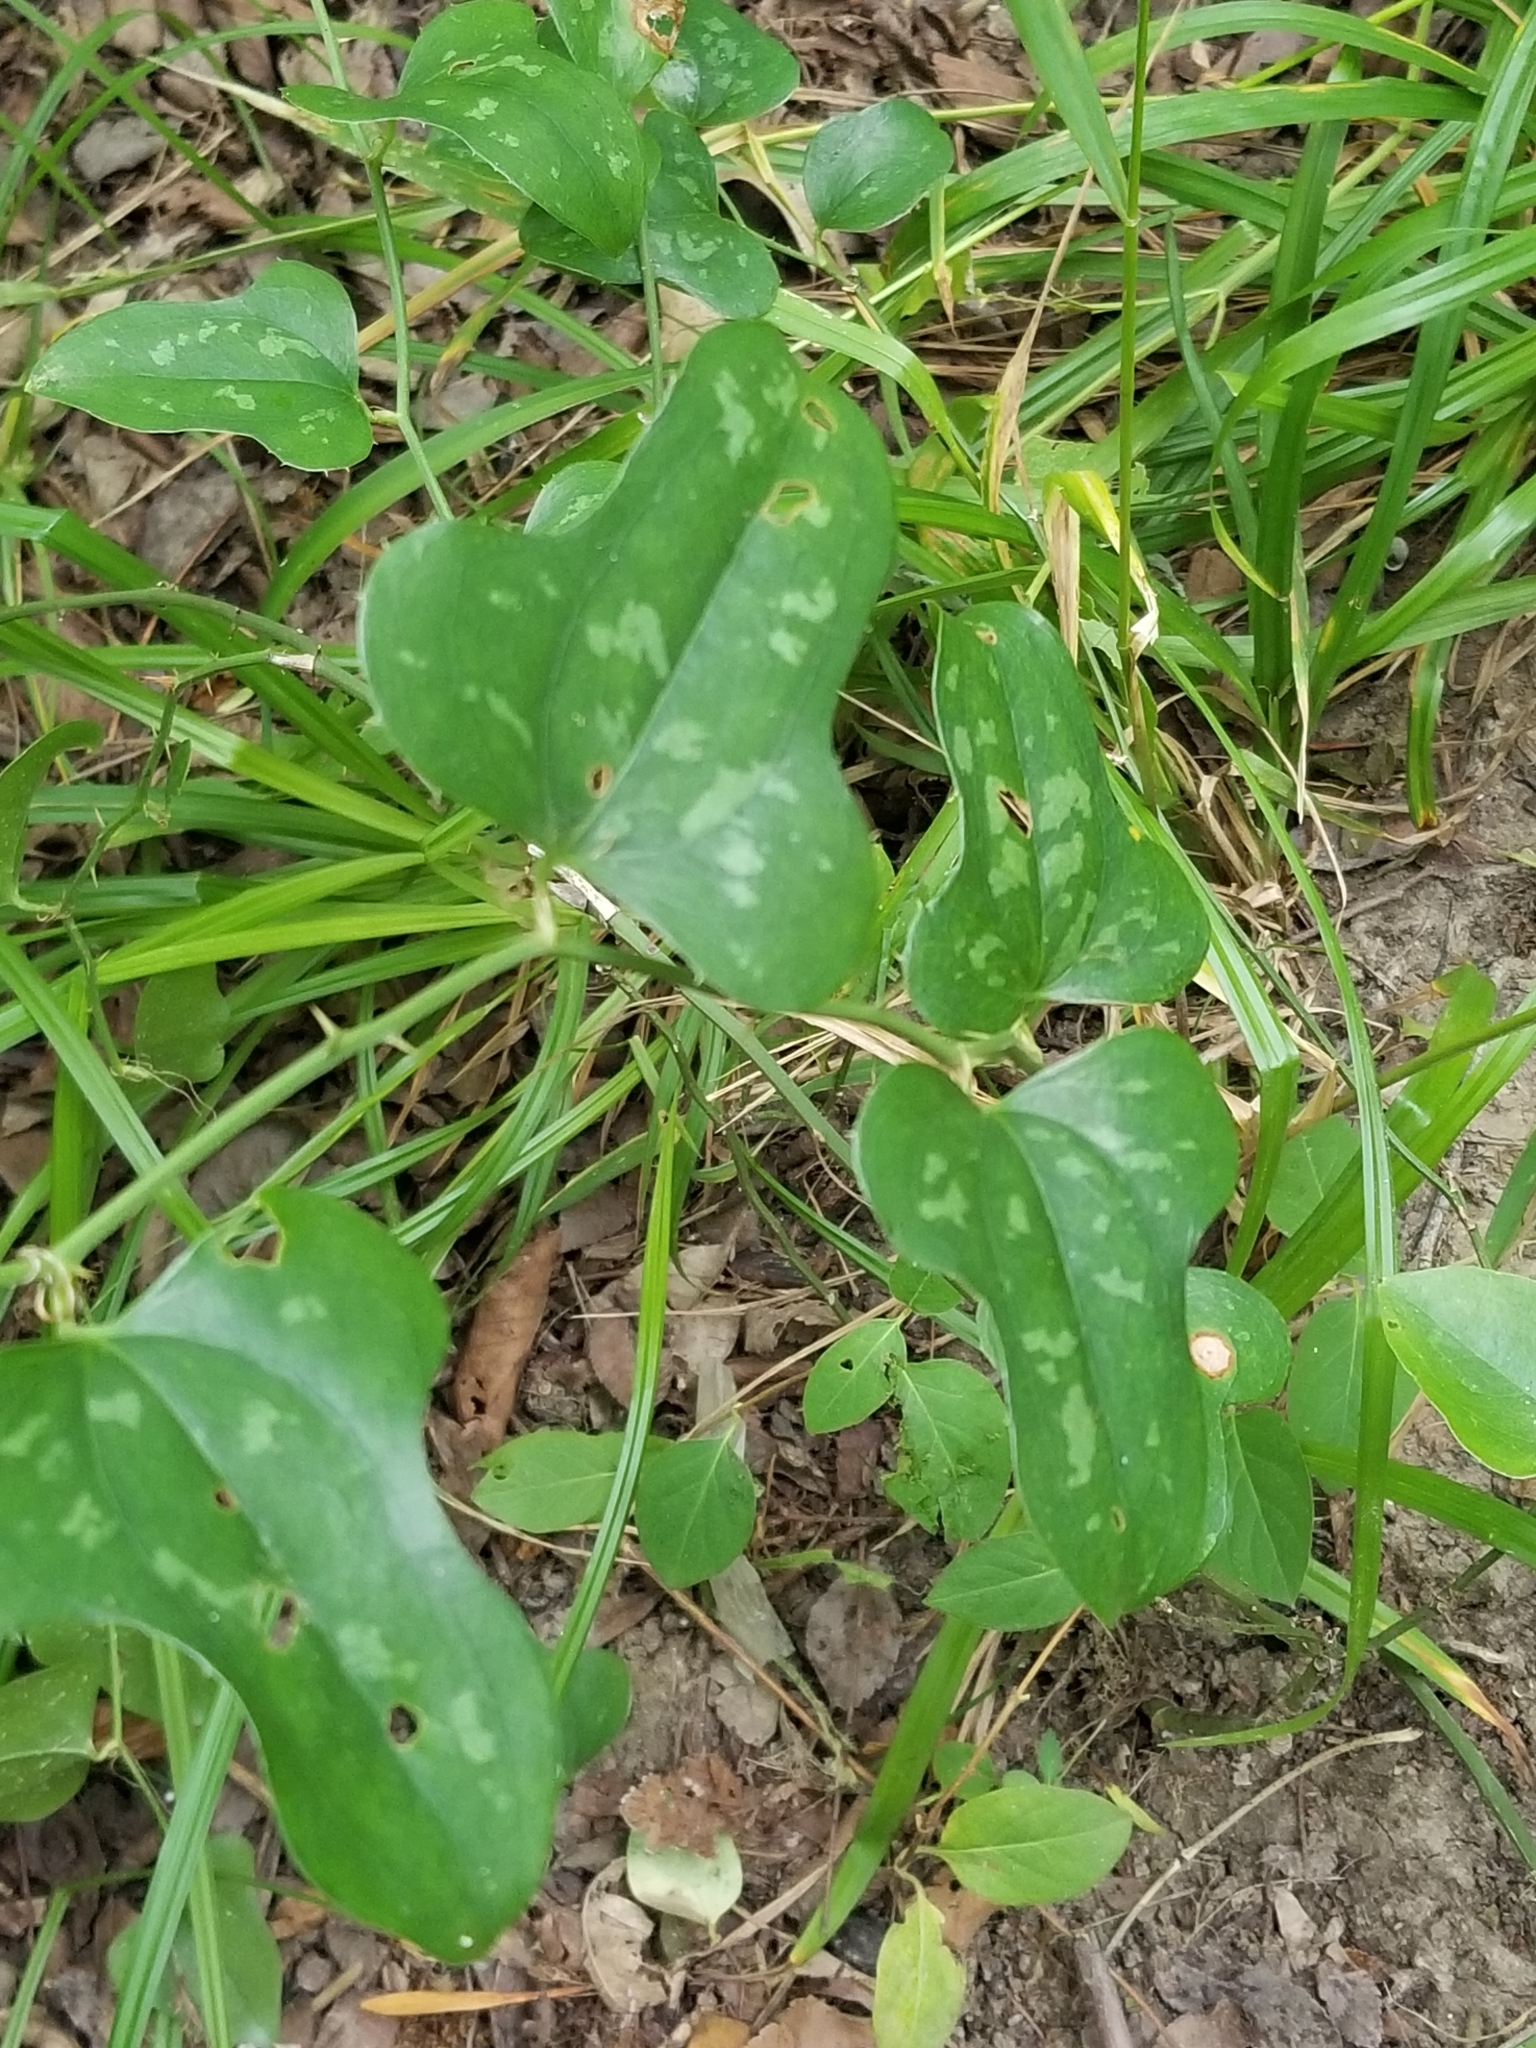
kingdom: Plantae
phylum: Tracheophyta
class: Liliopsida
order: Liliales
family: Smilacaceae
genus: Smilax
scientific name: Smilax bona-nox
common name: Catbrier
